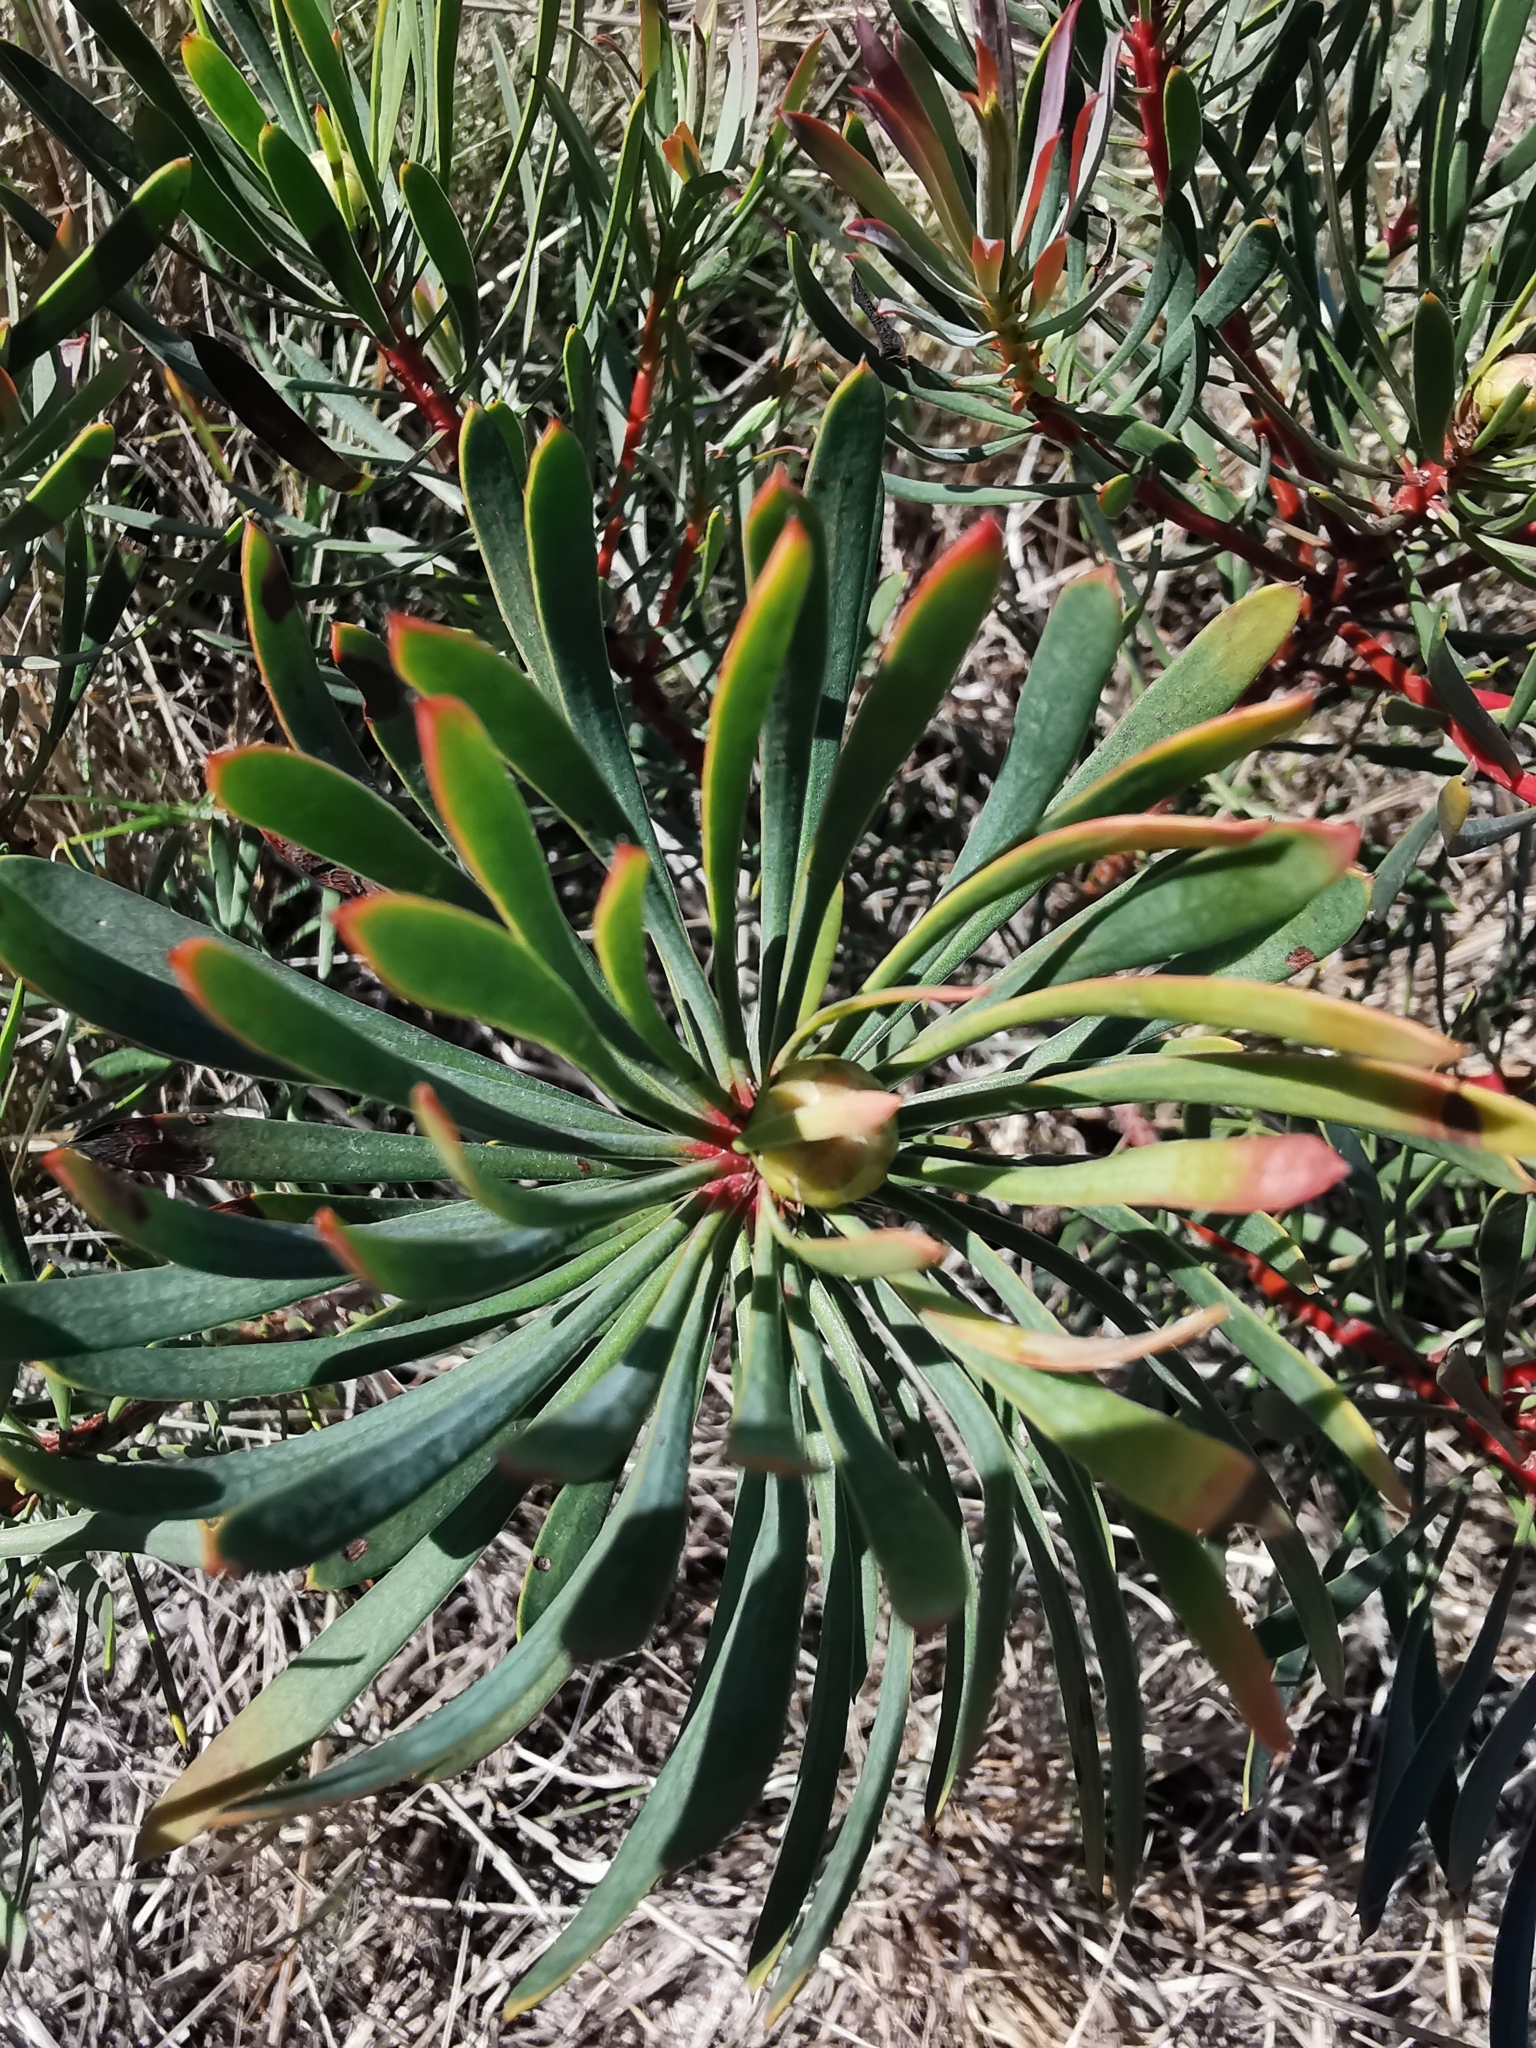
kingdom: Plantae
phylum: Tracheophyta
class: Magnoliopsida
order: Proteales
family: Proteaceae
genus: Protea
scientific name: Protea scolymocephala
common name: Thistle sugarbush
